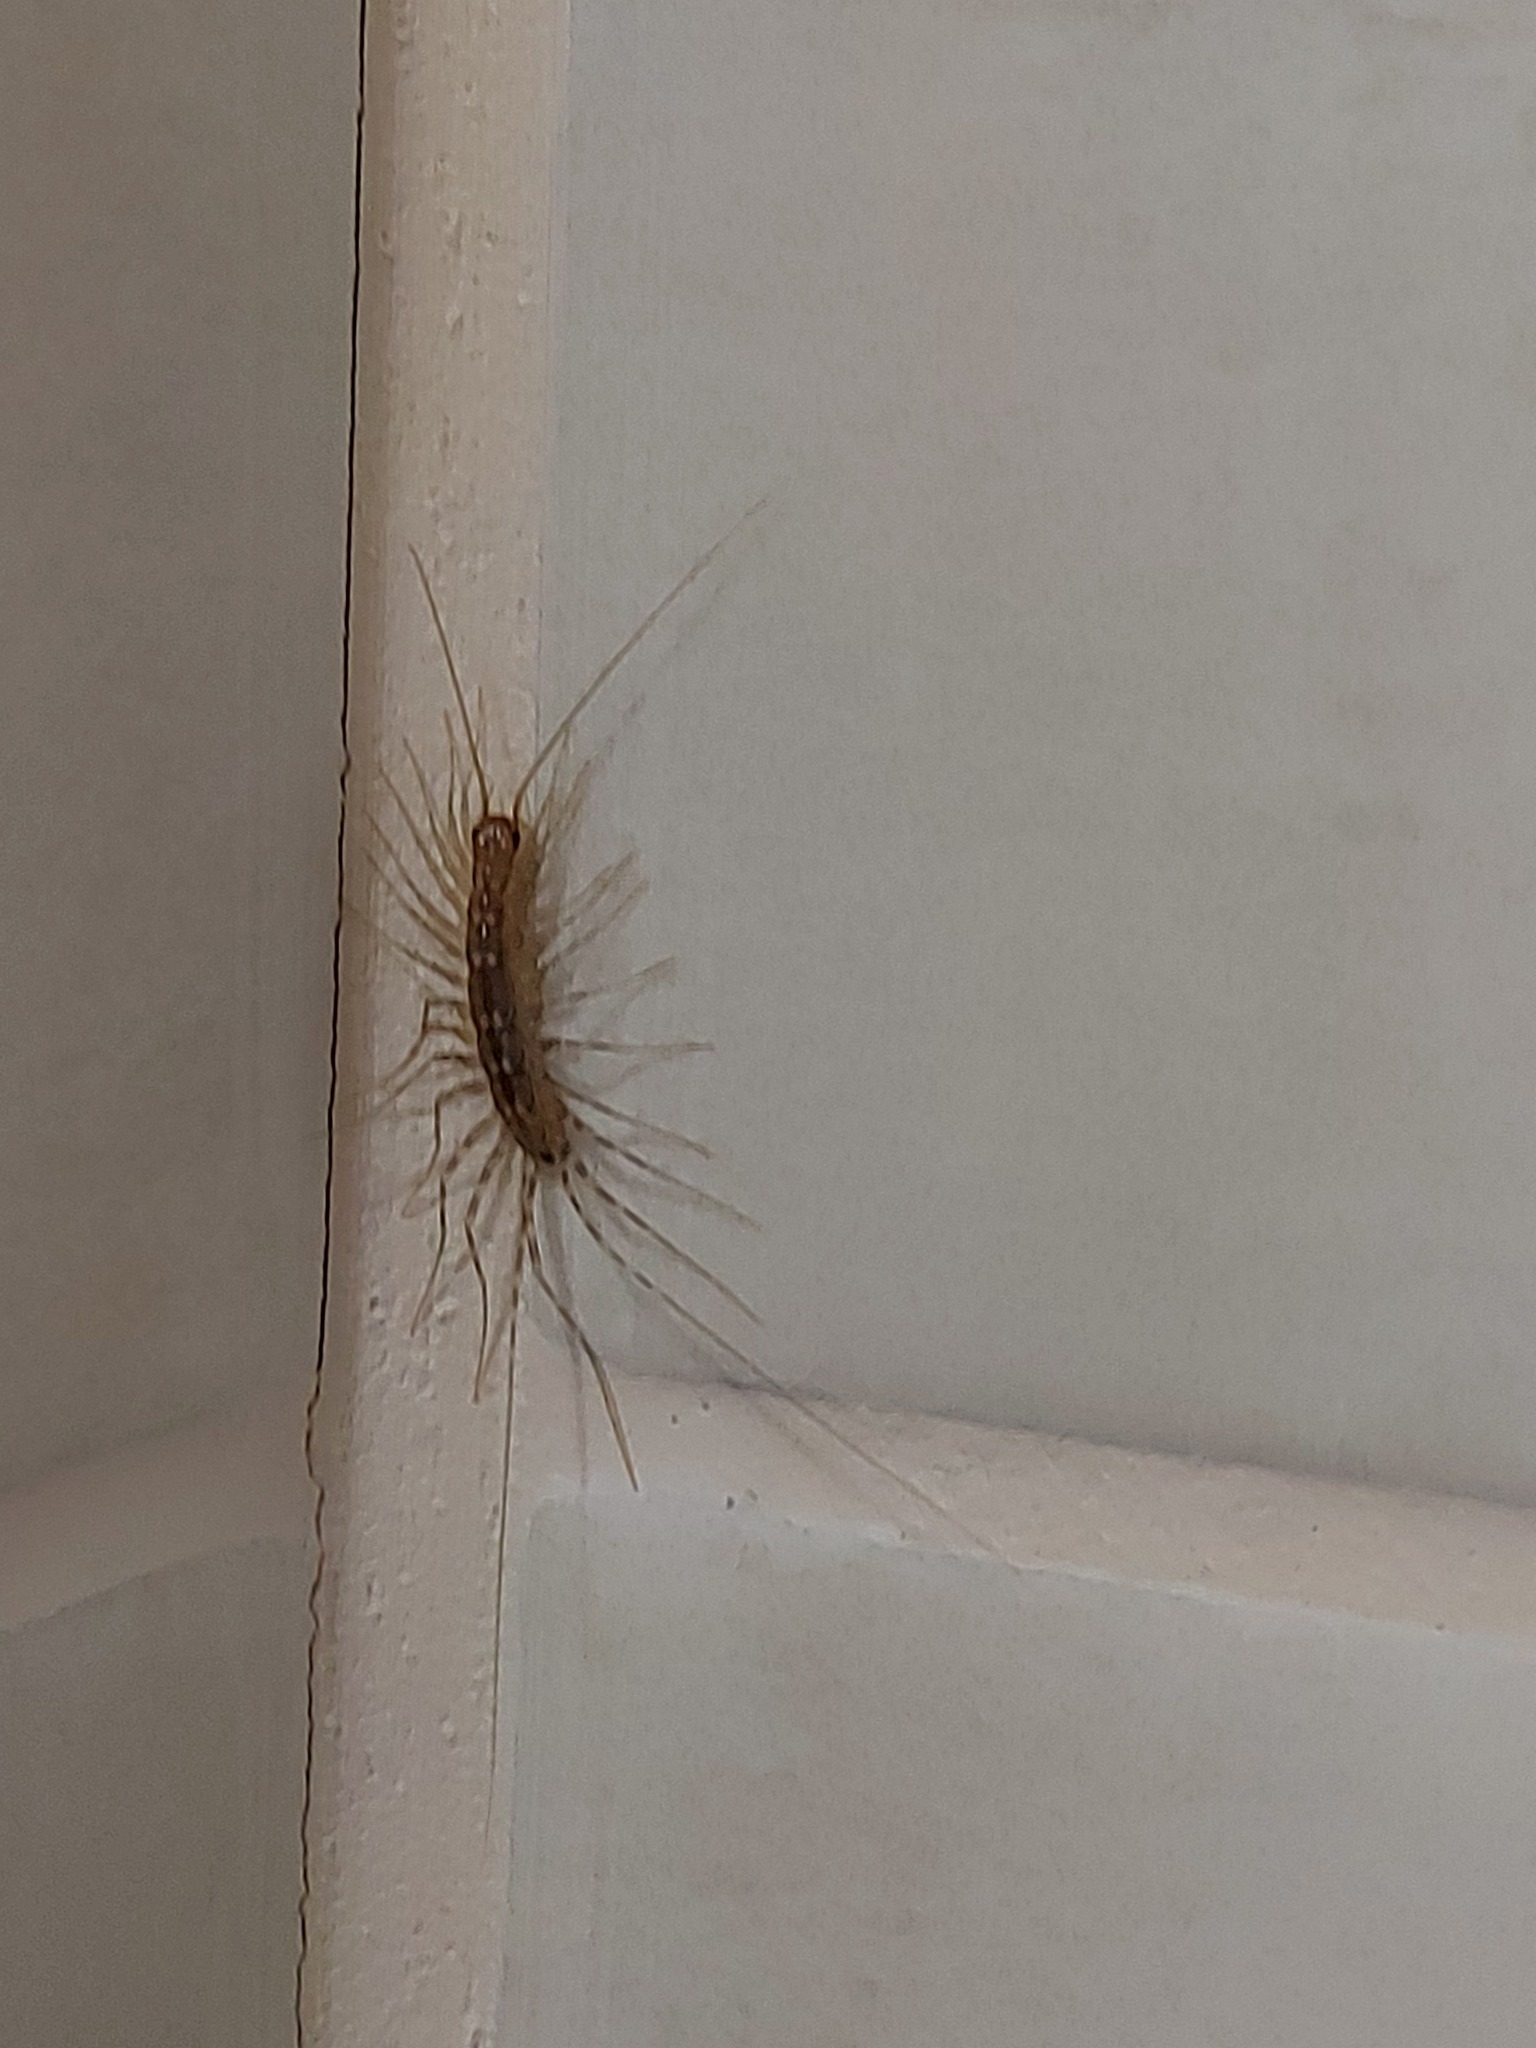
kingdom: Animalia
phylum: Arthropoda
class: Chilopoda
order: Scutigeromorpha
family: Scutigeridae
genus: Scutigera
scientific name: Scutigera coleoptrata
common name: House centipede
